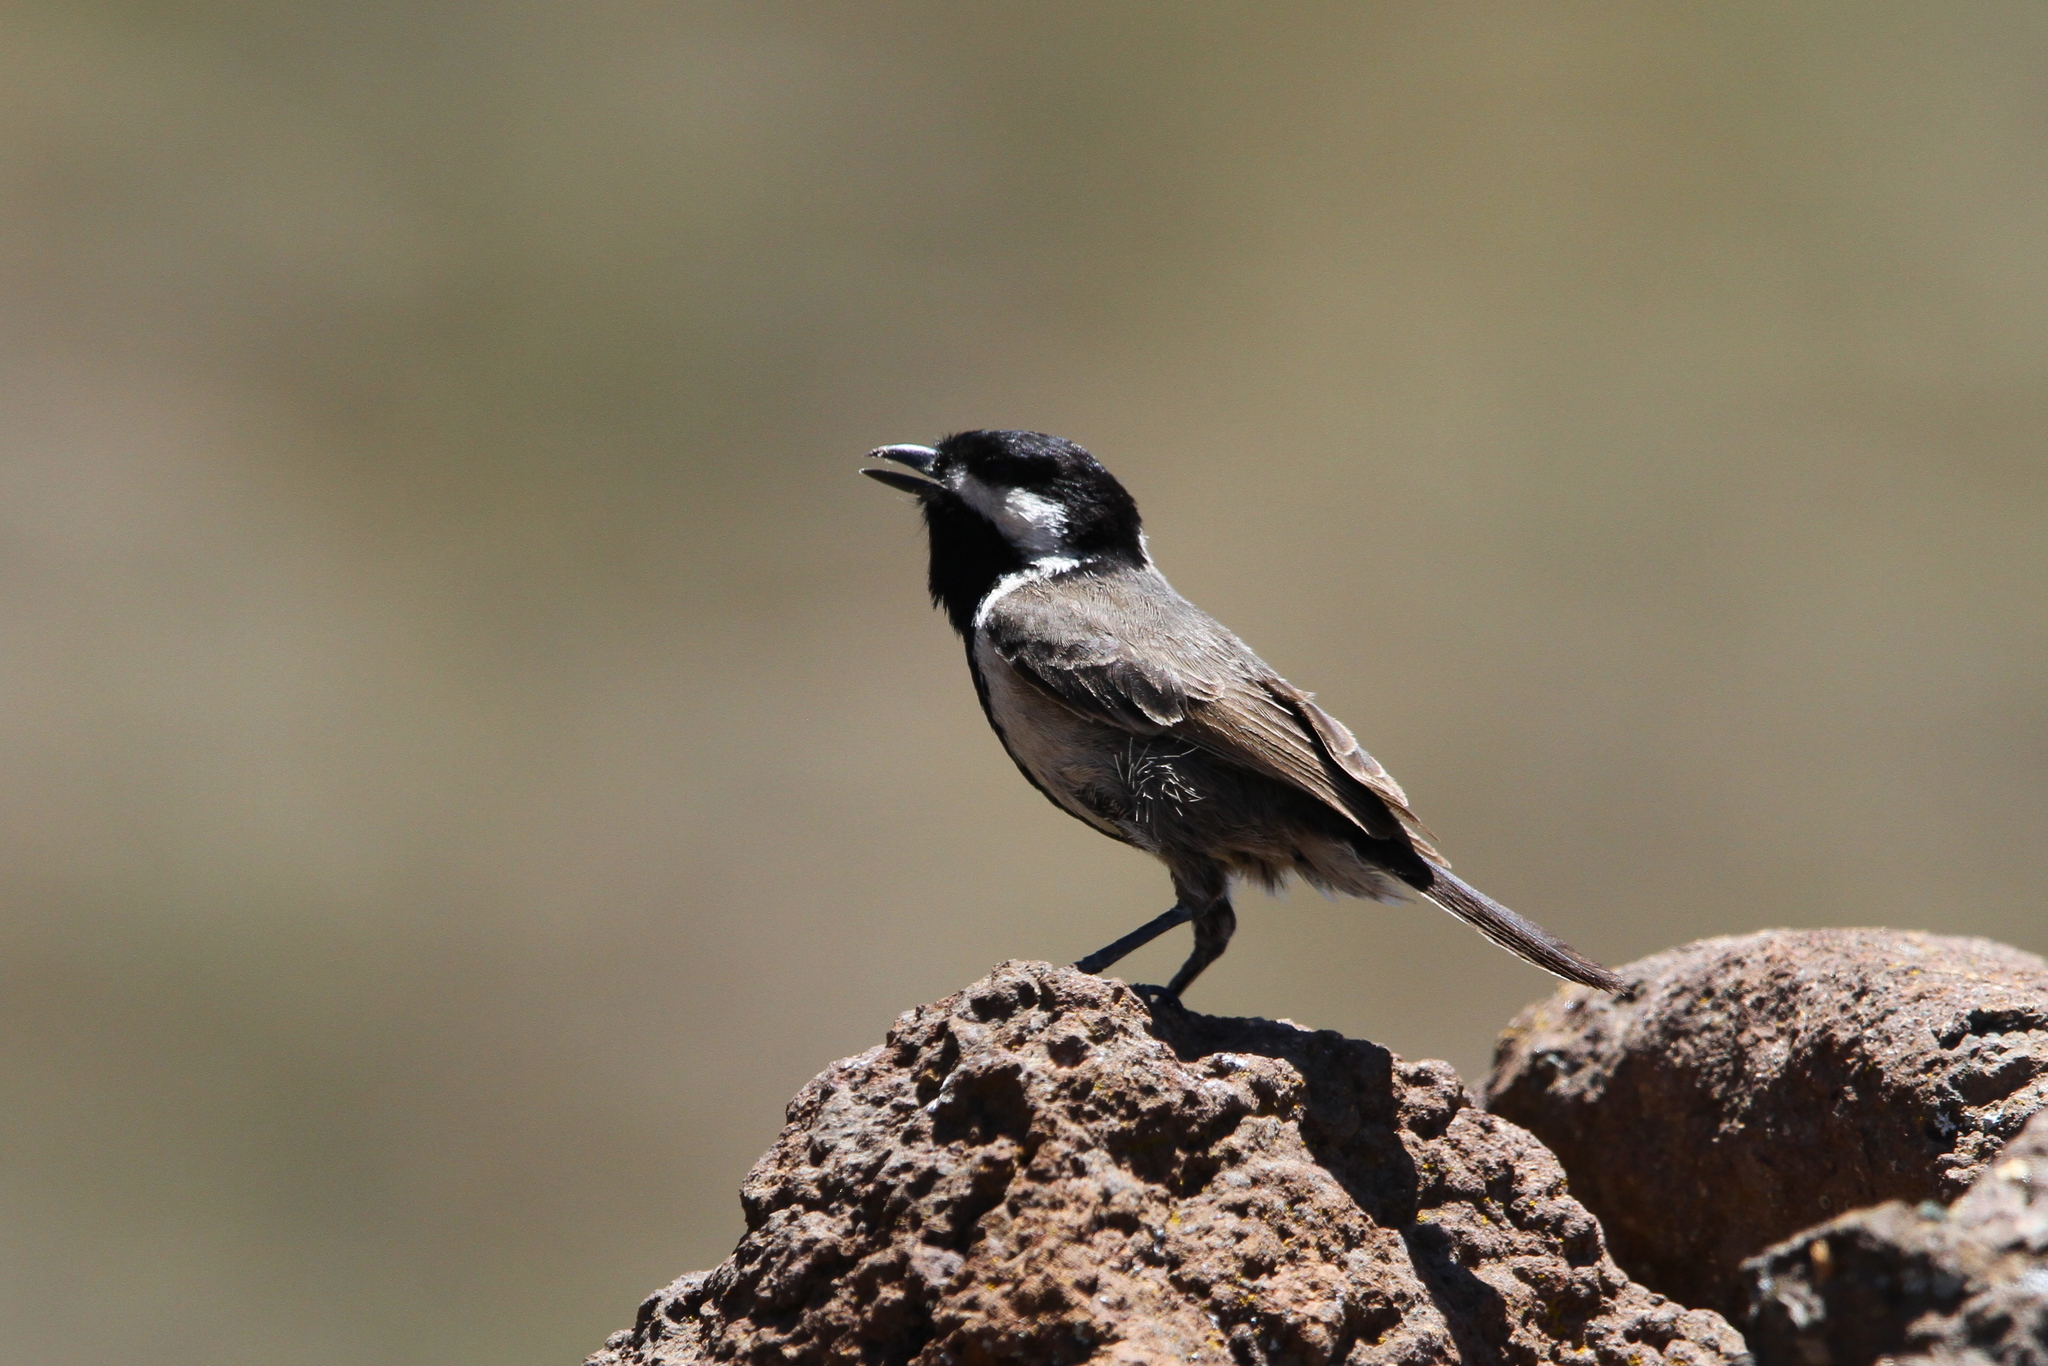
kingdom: Animalia
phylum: Chordata
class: Aves
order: Passeriformes
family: Paridae
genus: Parus
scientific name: Parus afer
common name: Grey tit
